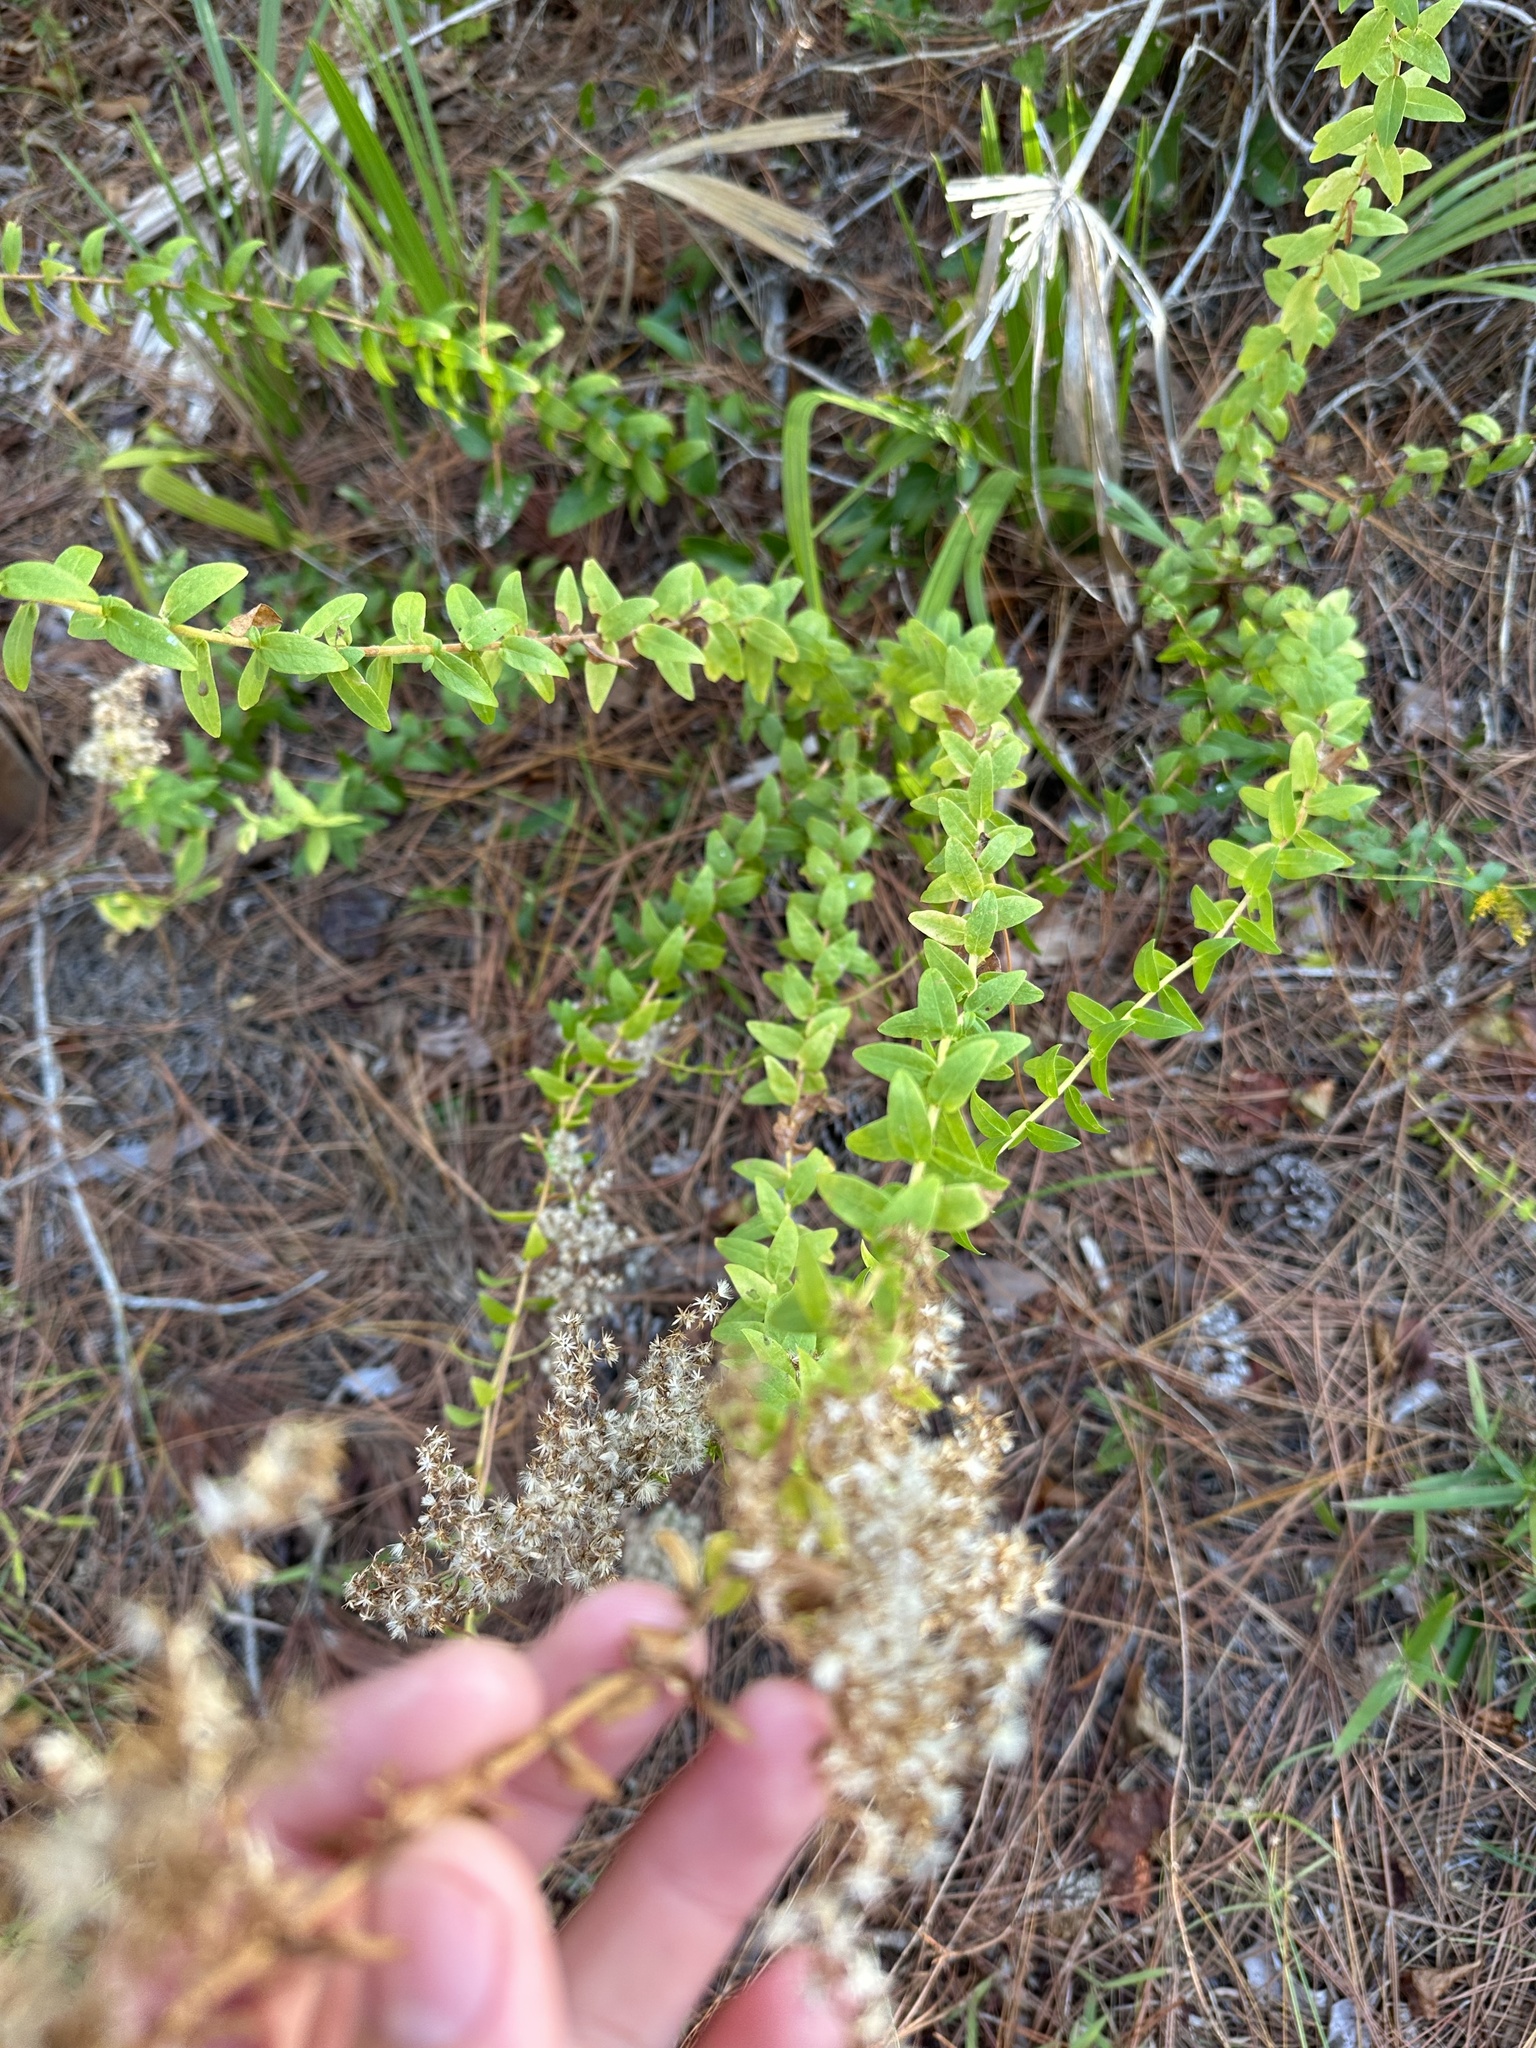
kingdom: Plantae
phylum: Tracheophyta
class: Magnoliopsida
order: Asterales
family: Asteraceae
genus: Solidago
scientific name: Solidago chapmanii
